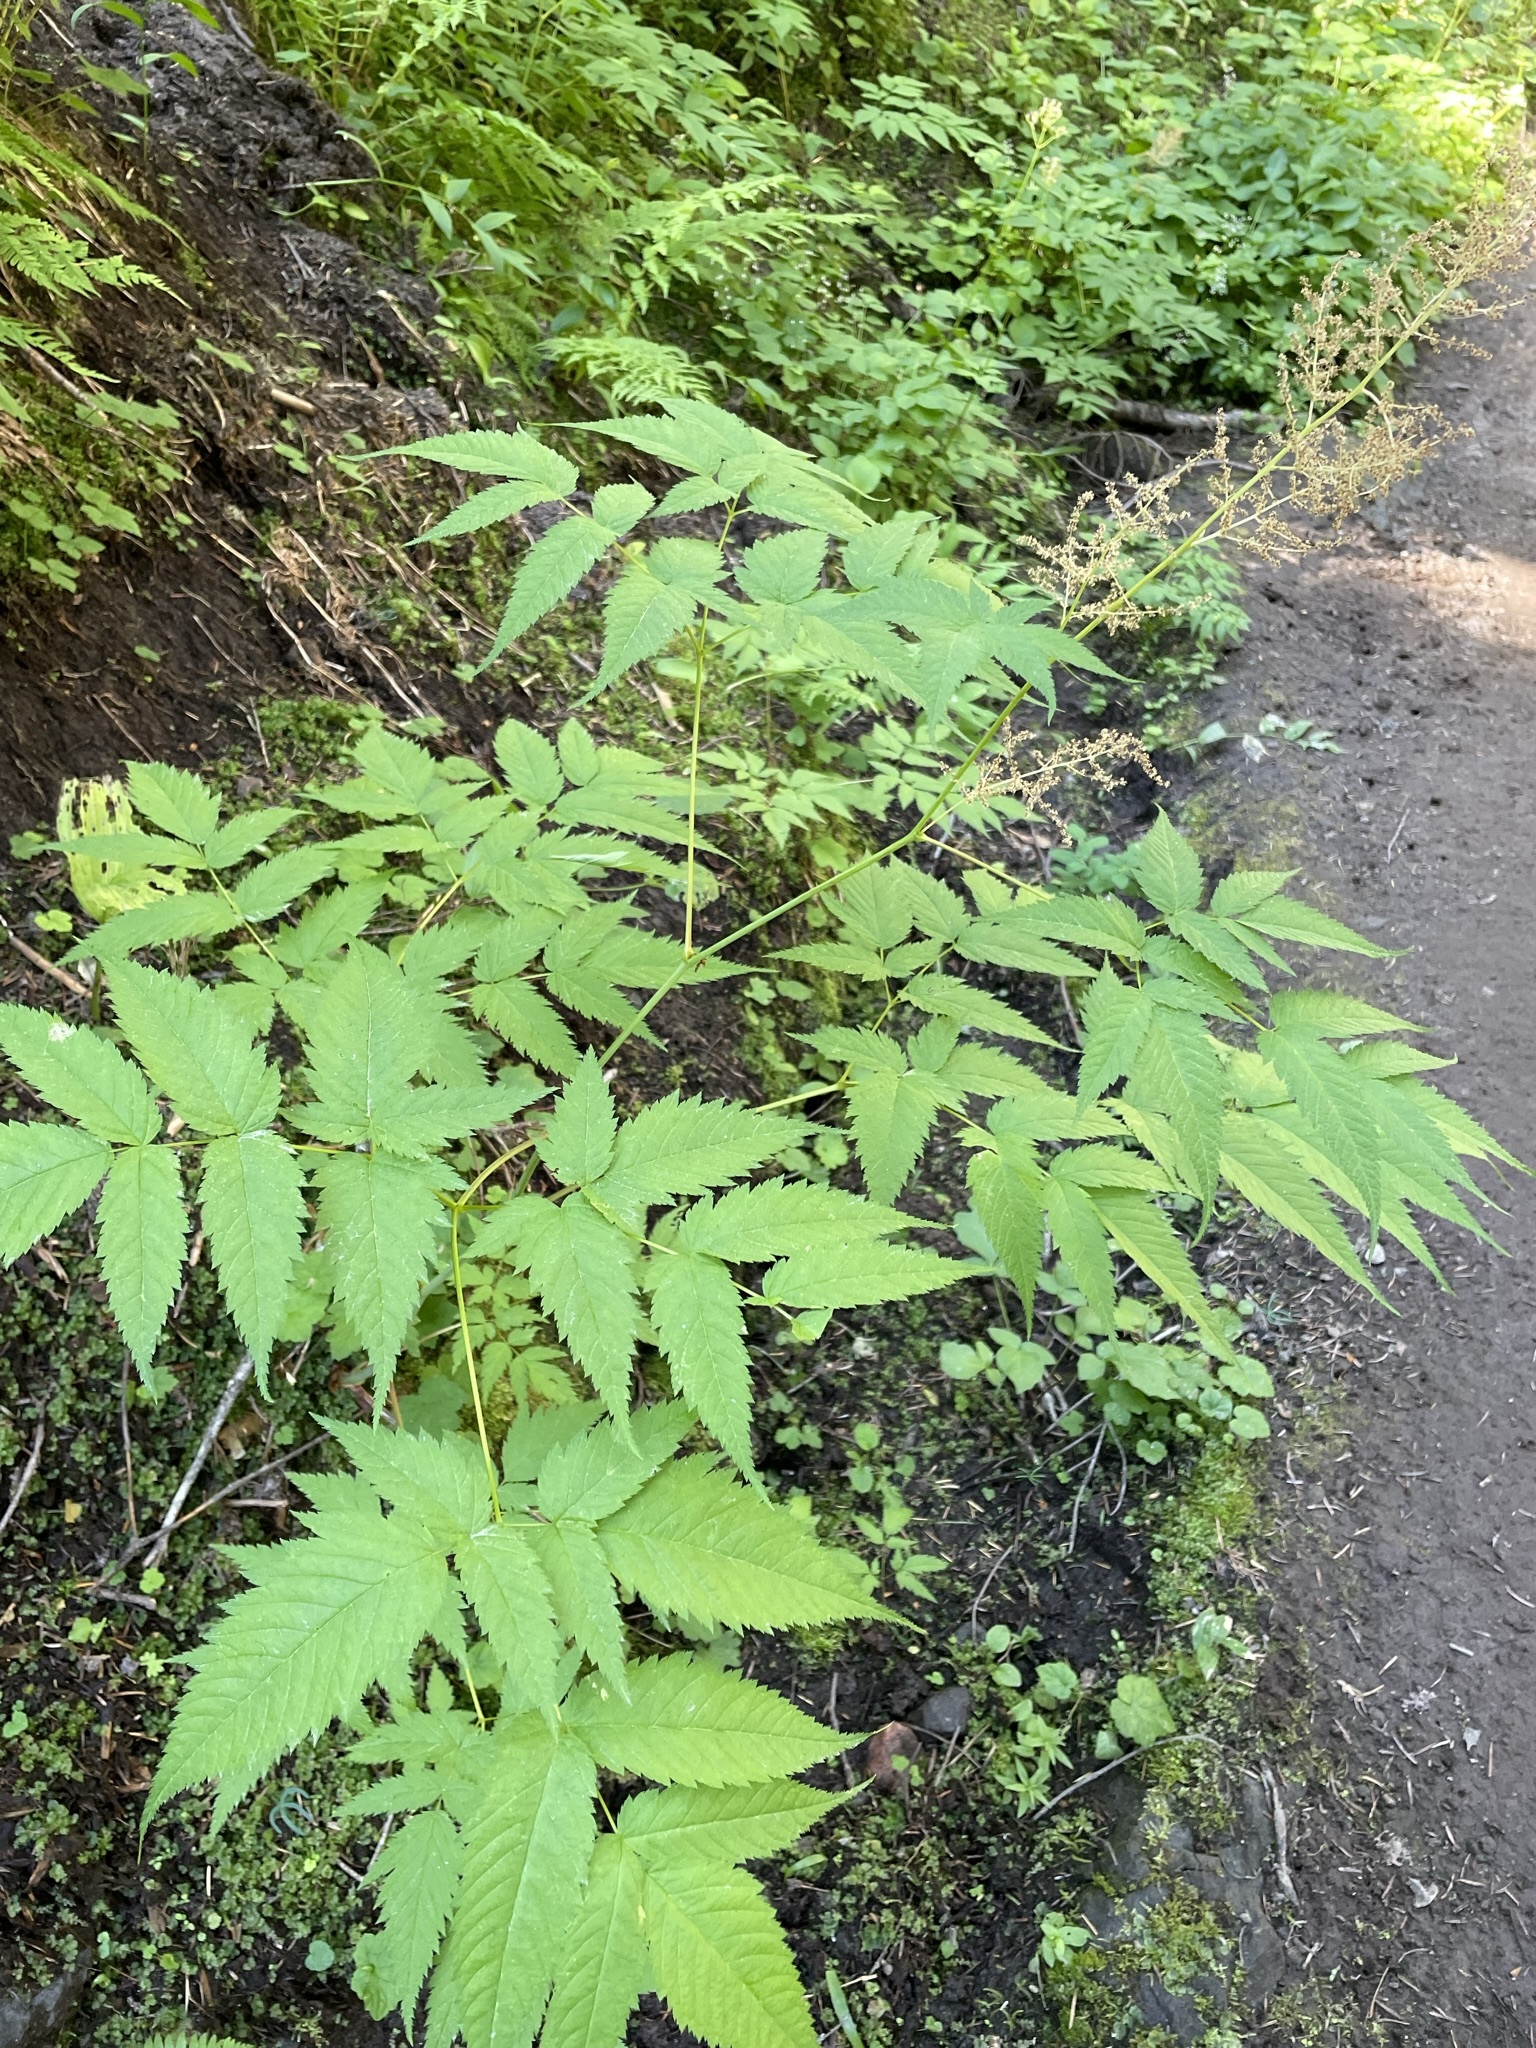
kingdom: Plantae
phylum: Tracheophyta
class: Magnoliopsida
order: Rosales
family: Rosaceae
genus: Aruncus
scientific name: Aruncus dioicus
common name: Buck's-beard
